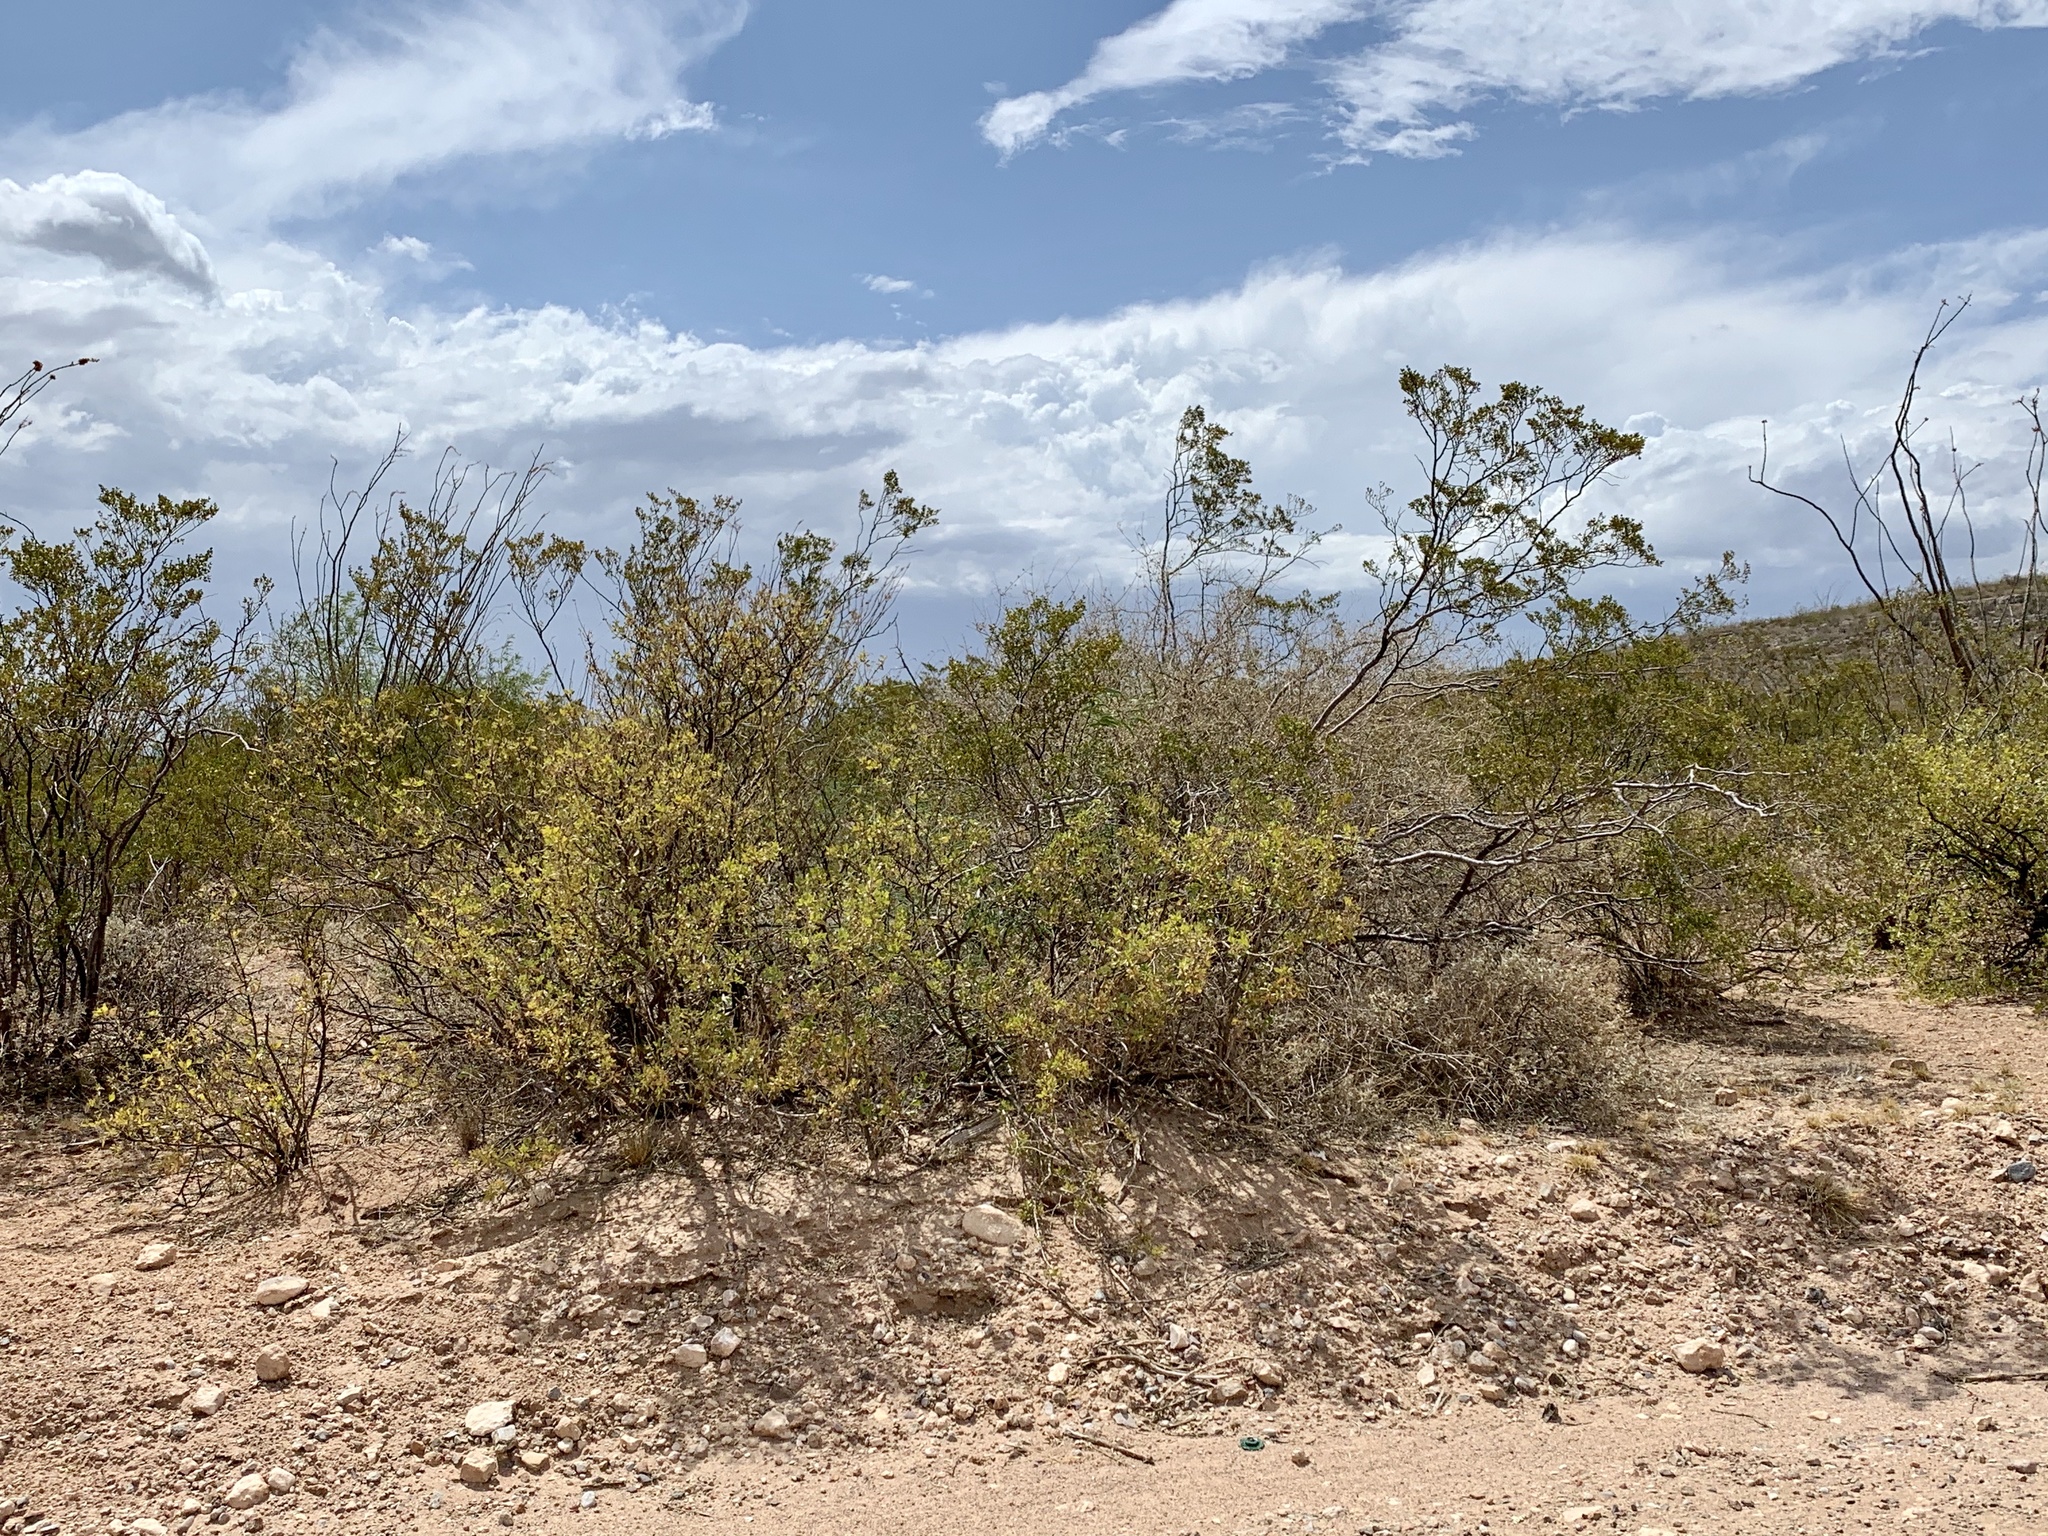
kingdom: Plantae
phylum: Tracheophyta
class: Magnoliopsida
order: Zygophyllales
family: Zygophyllaceae
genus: Larrea
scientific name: Larrea tridentata
